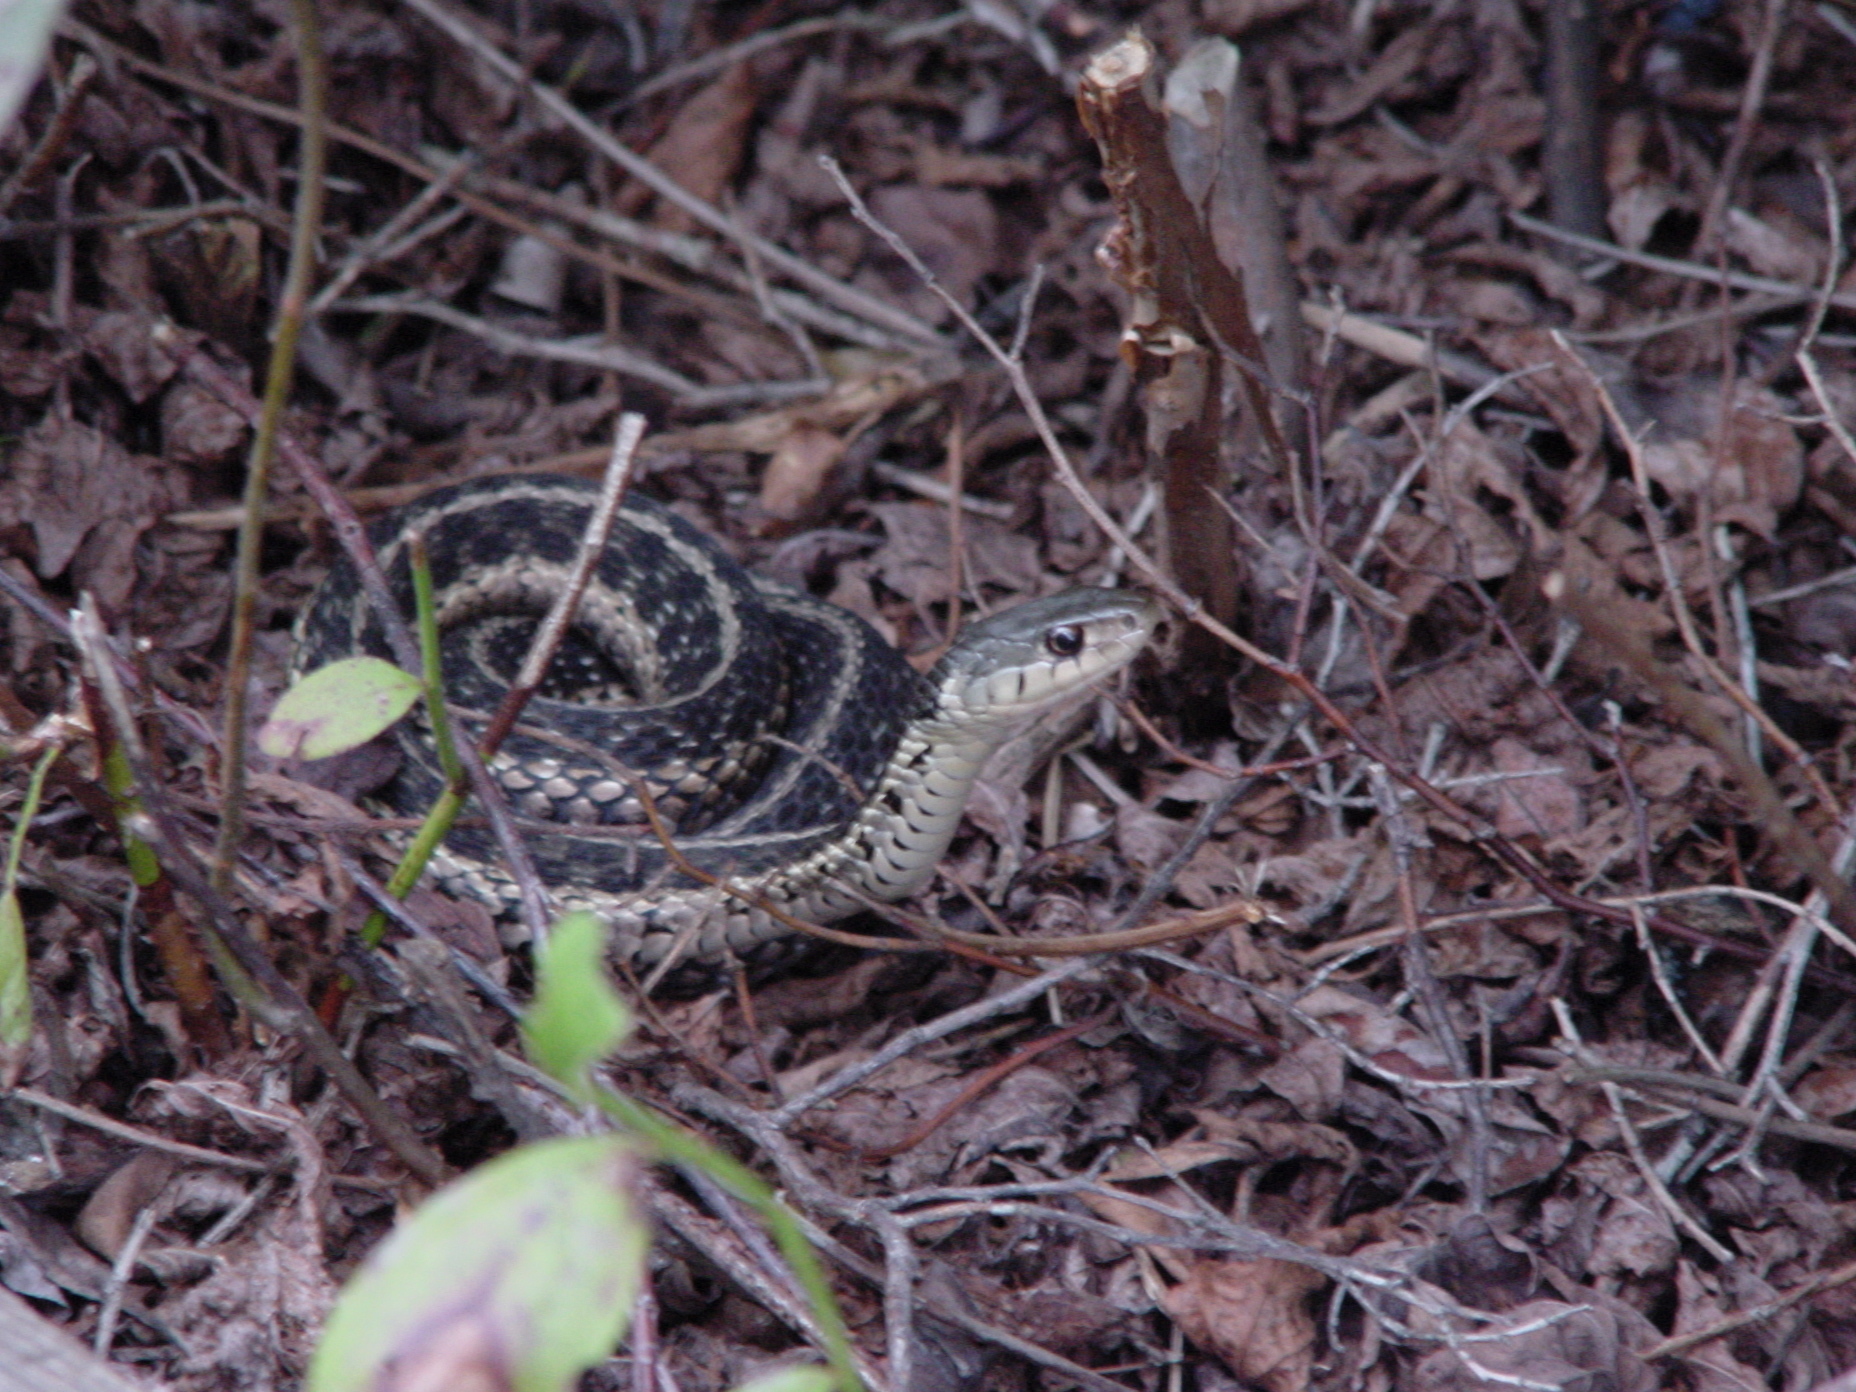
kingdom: Animalia
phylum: Chordata
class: Squamata
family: Colubridae
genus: Thamnophis
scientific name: Thamnophis sirtalis
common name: Common garter snake
